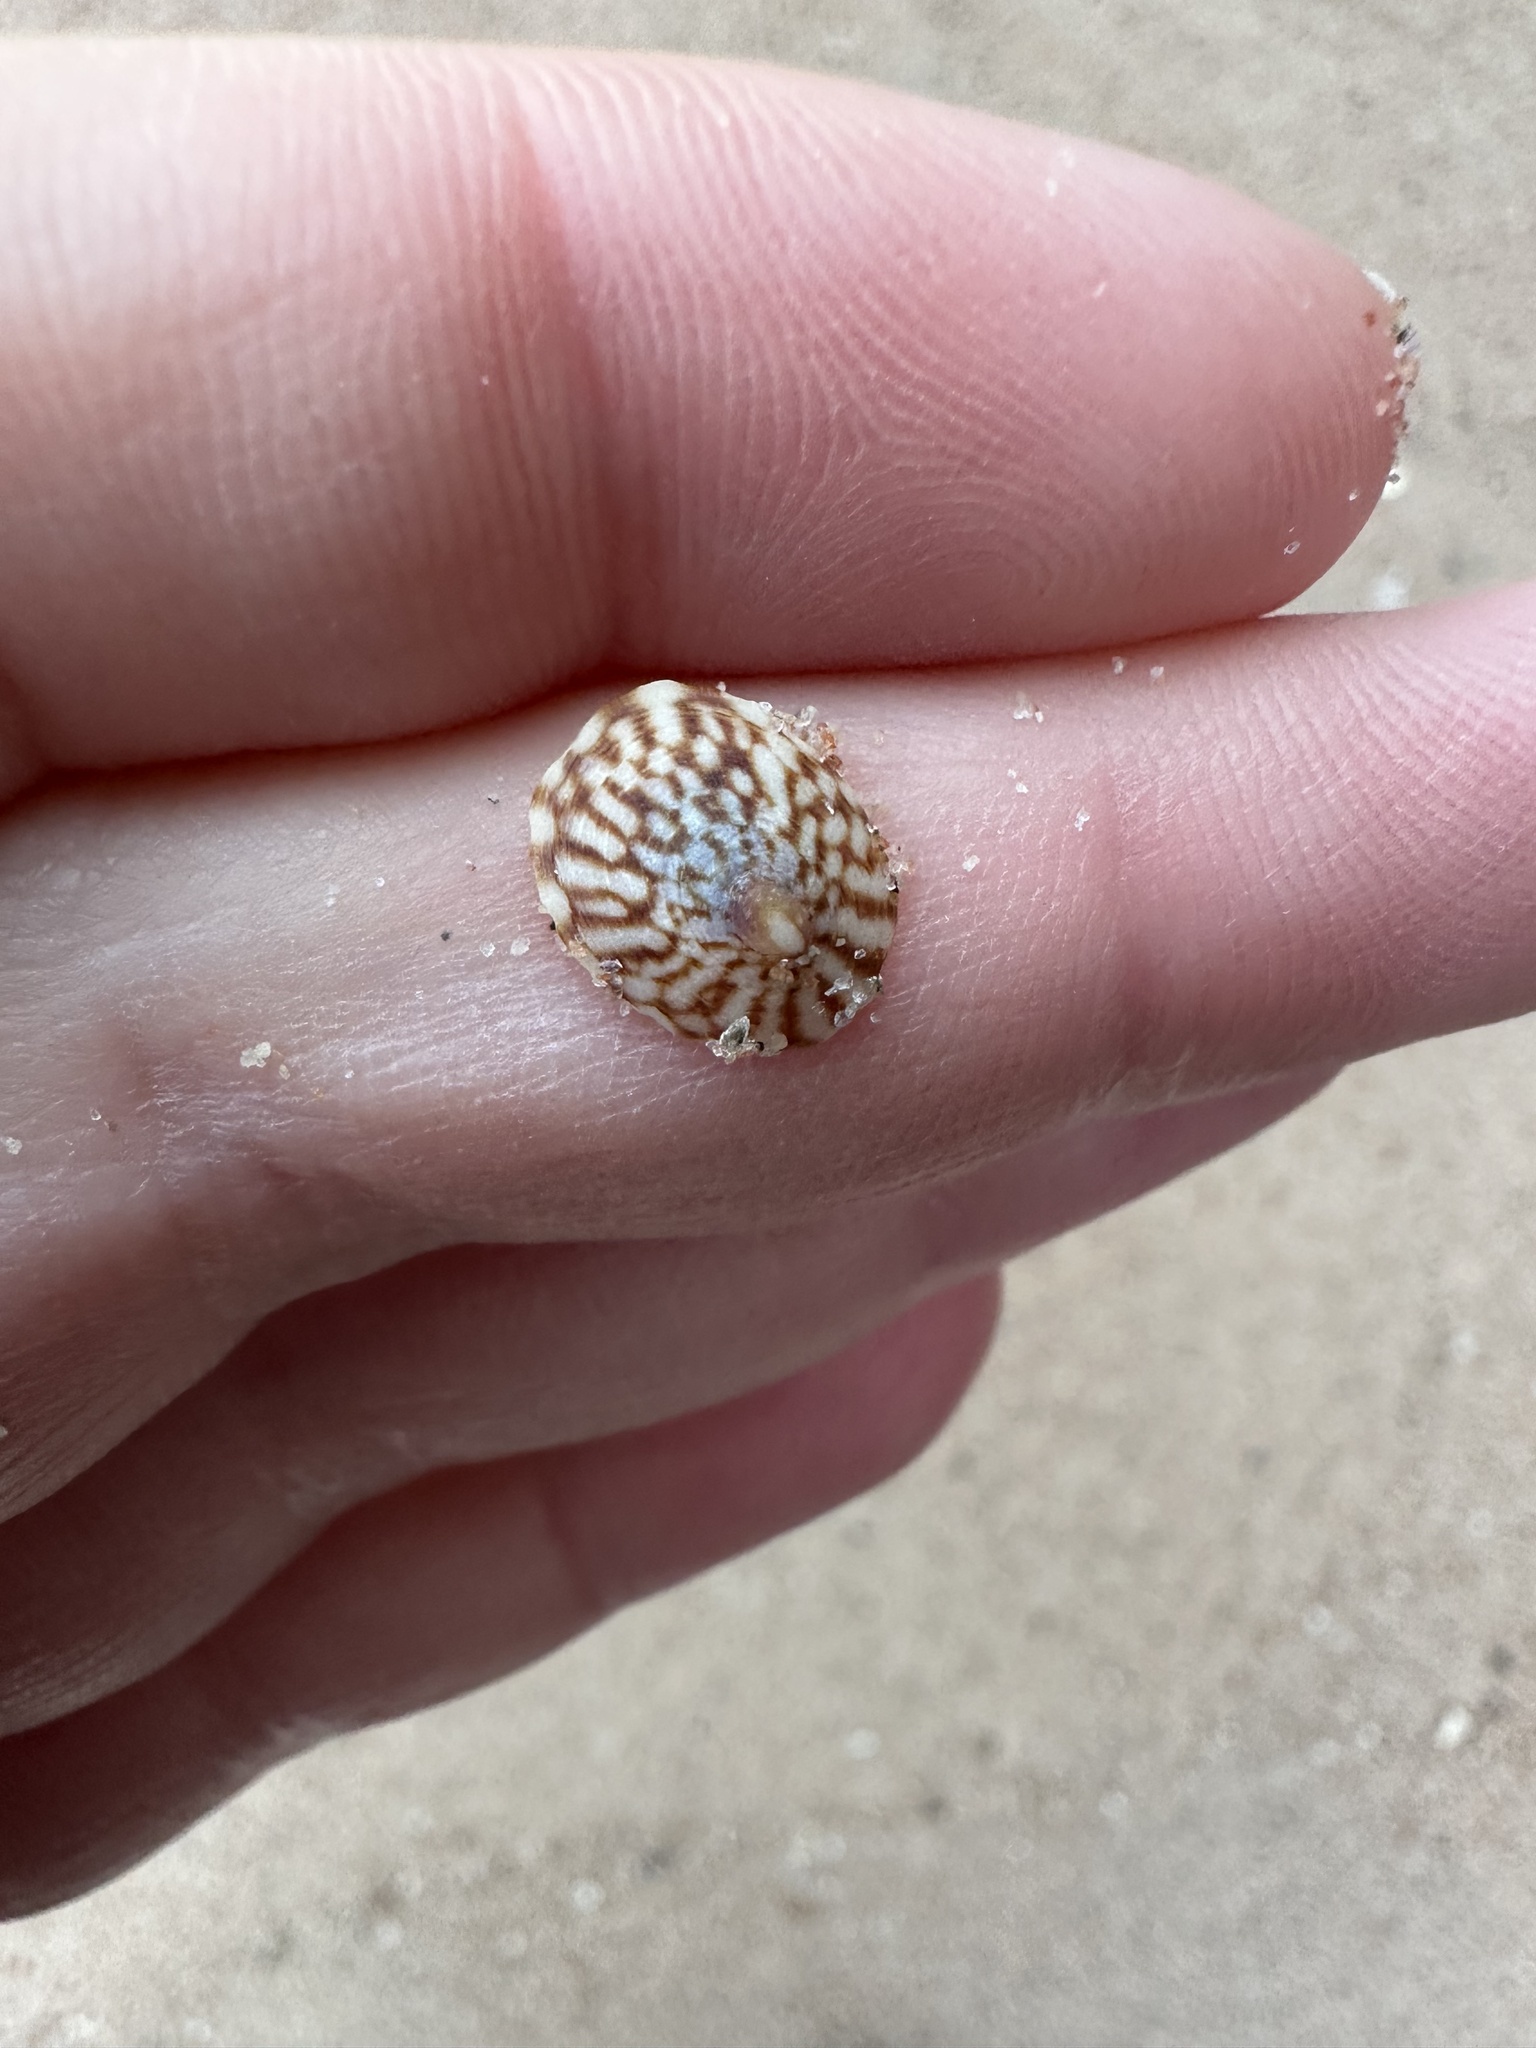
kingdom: Animalia
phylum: Mollusca
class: Gastropoda
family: Lottiidae
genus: Testudinalia
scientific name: Testudinalia testudinalis
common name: Common tortoiseshell limpet
